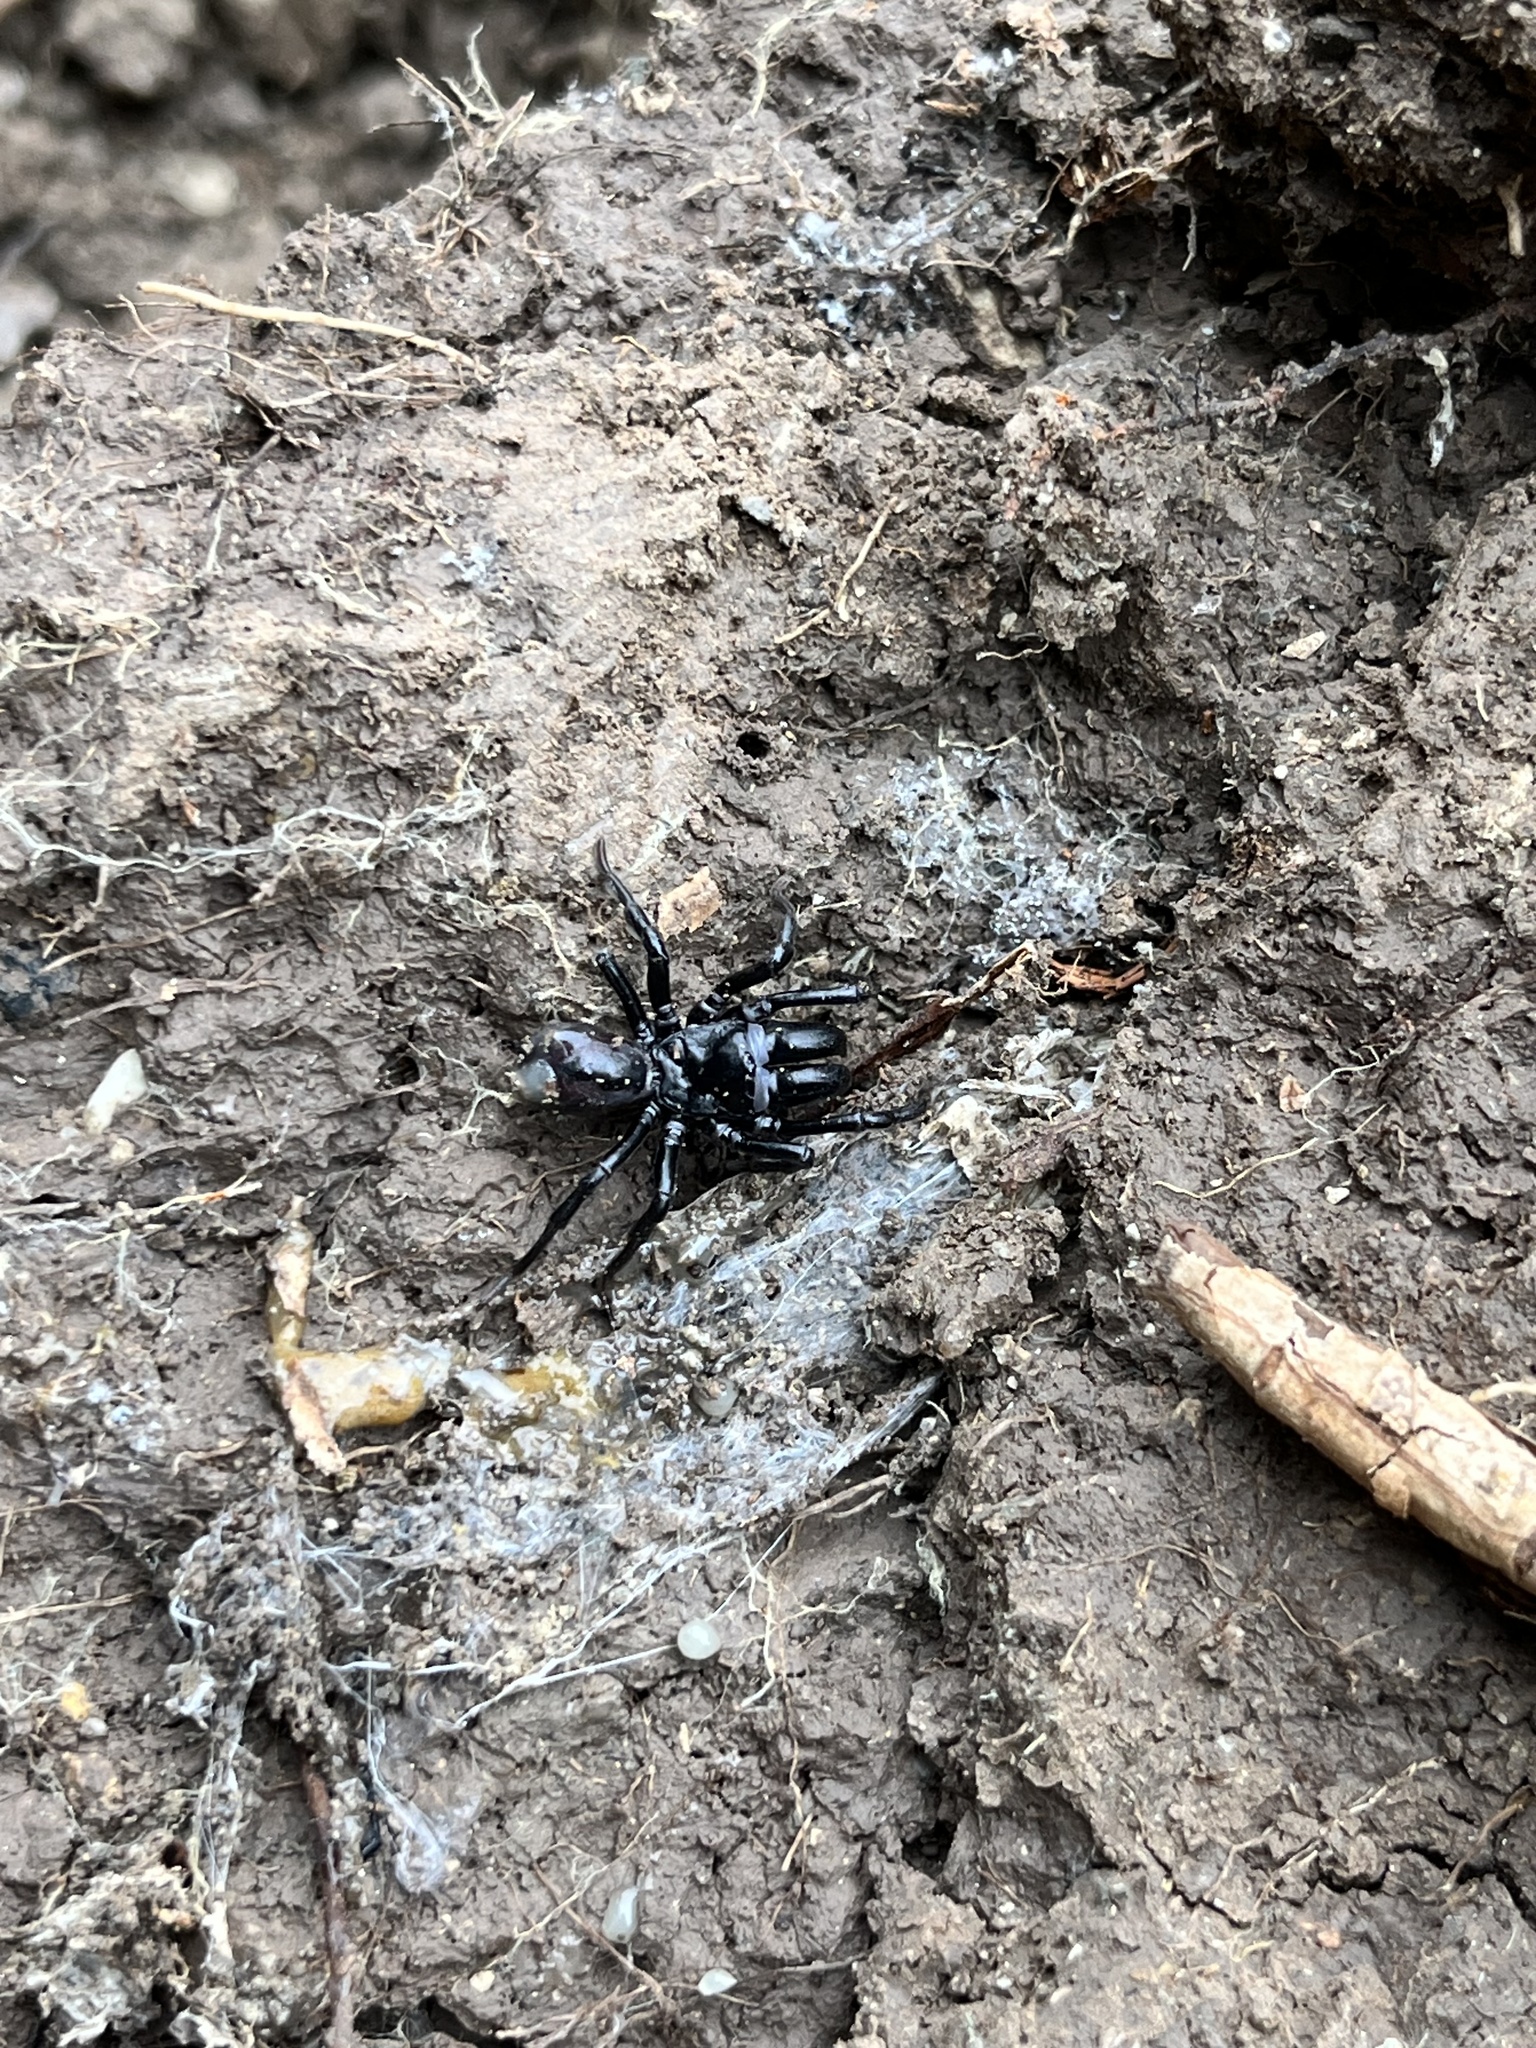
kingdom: Animalia
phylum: Arthropoda
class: Arachnida
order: Araneae
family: Atypidae
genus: Atypus
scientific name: Atypus
